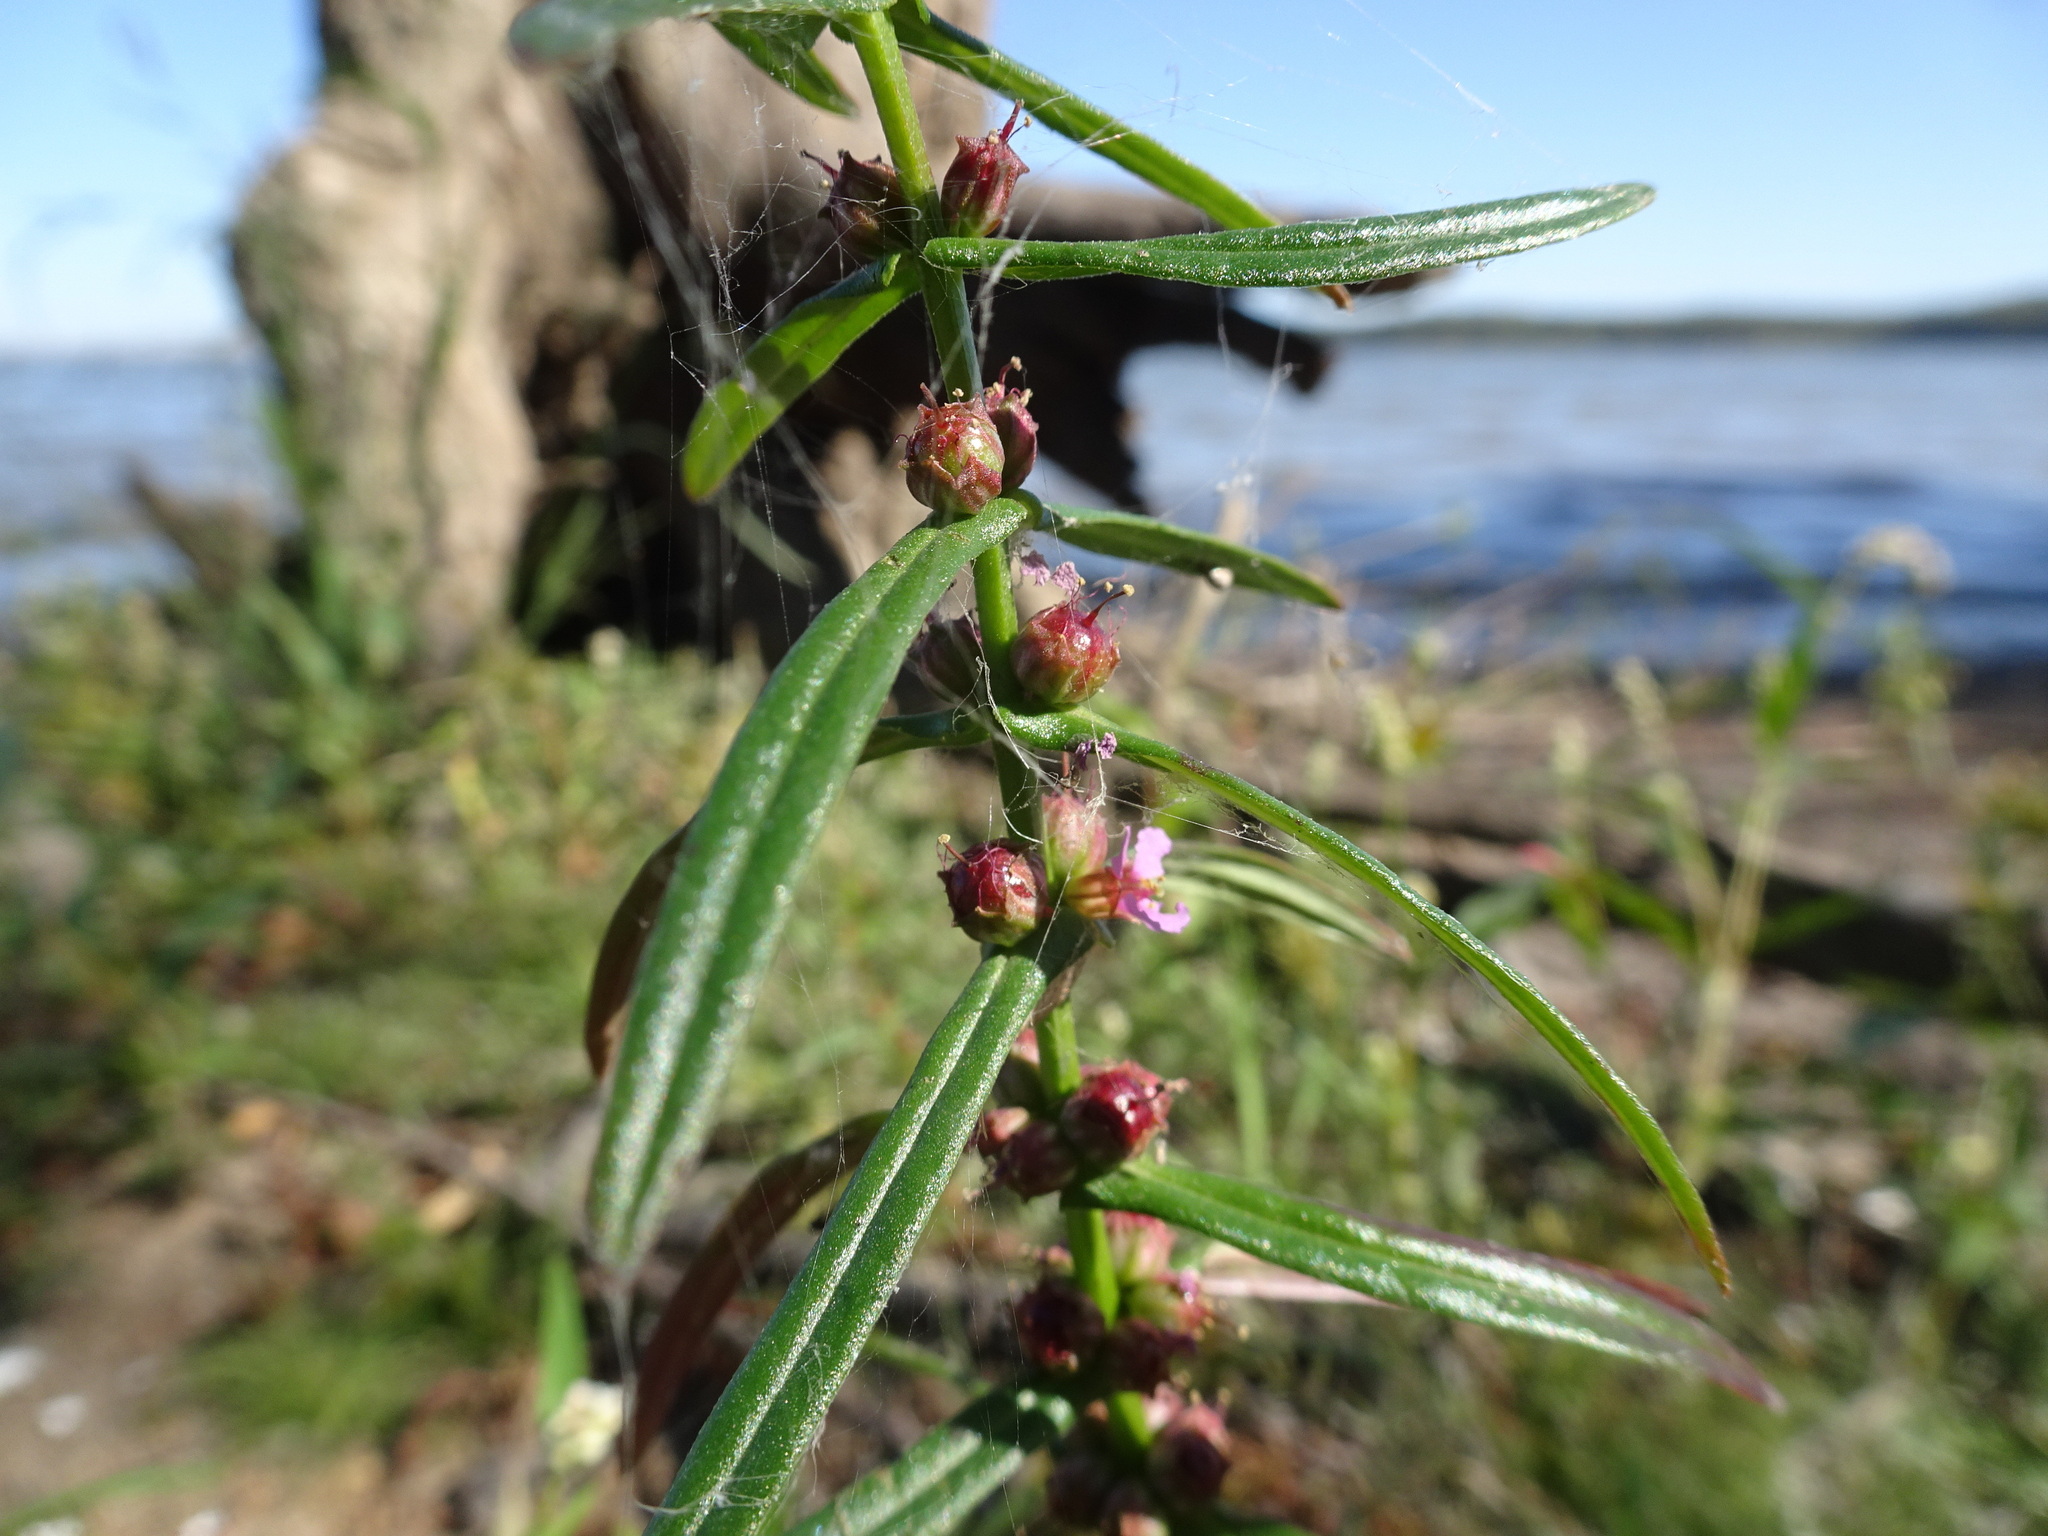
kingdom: Plantae
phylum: Tracheophyta
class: Magnoliopsida
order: Myrtales
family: Lythraceae
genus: Ammannia
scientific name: Ammannia coccinea
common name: Valley redstem
